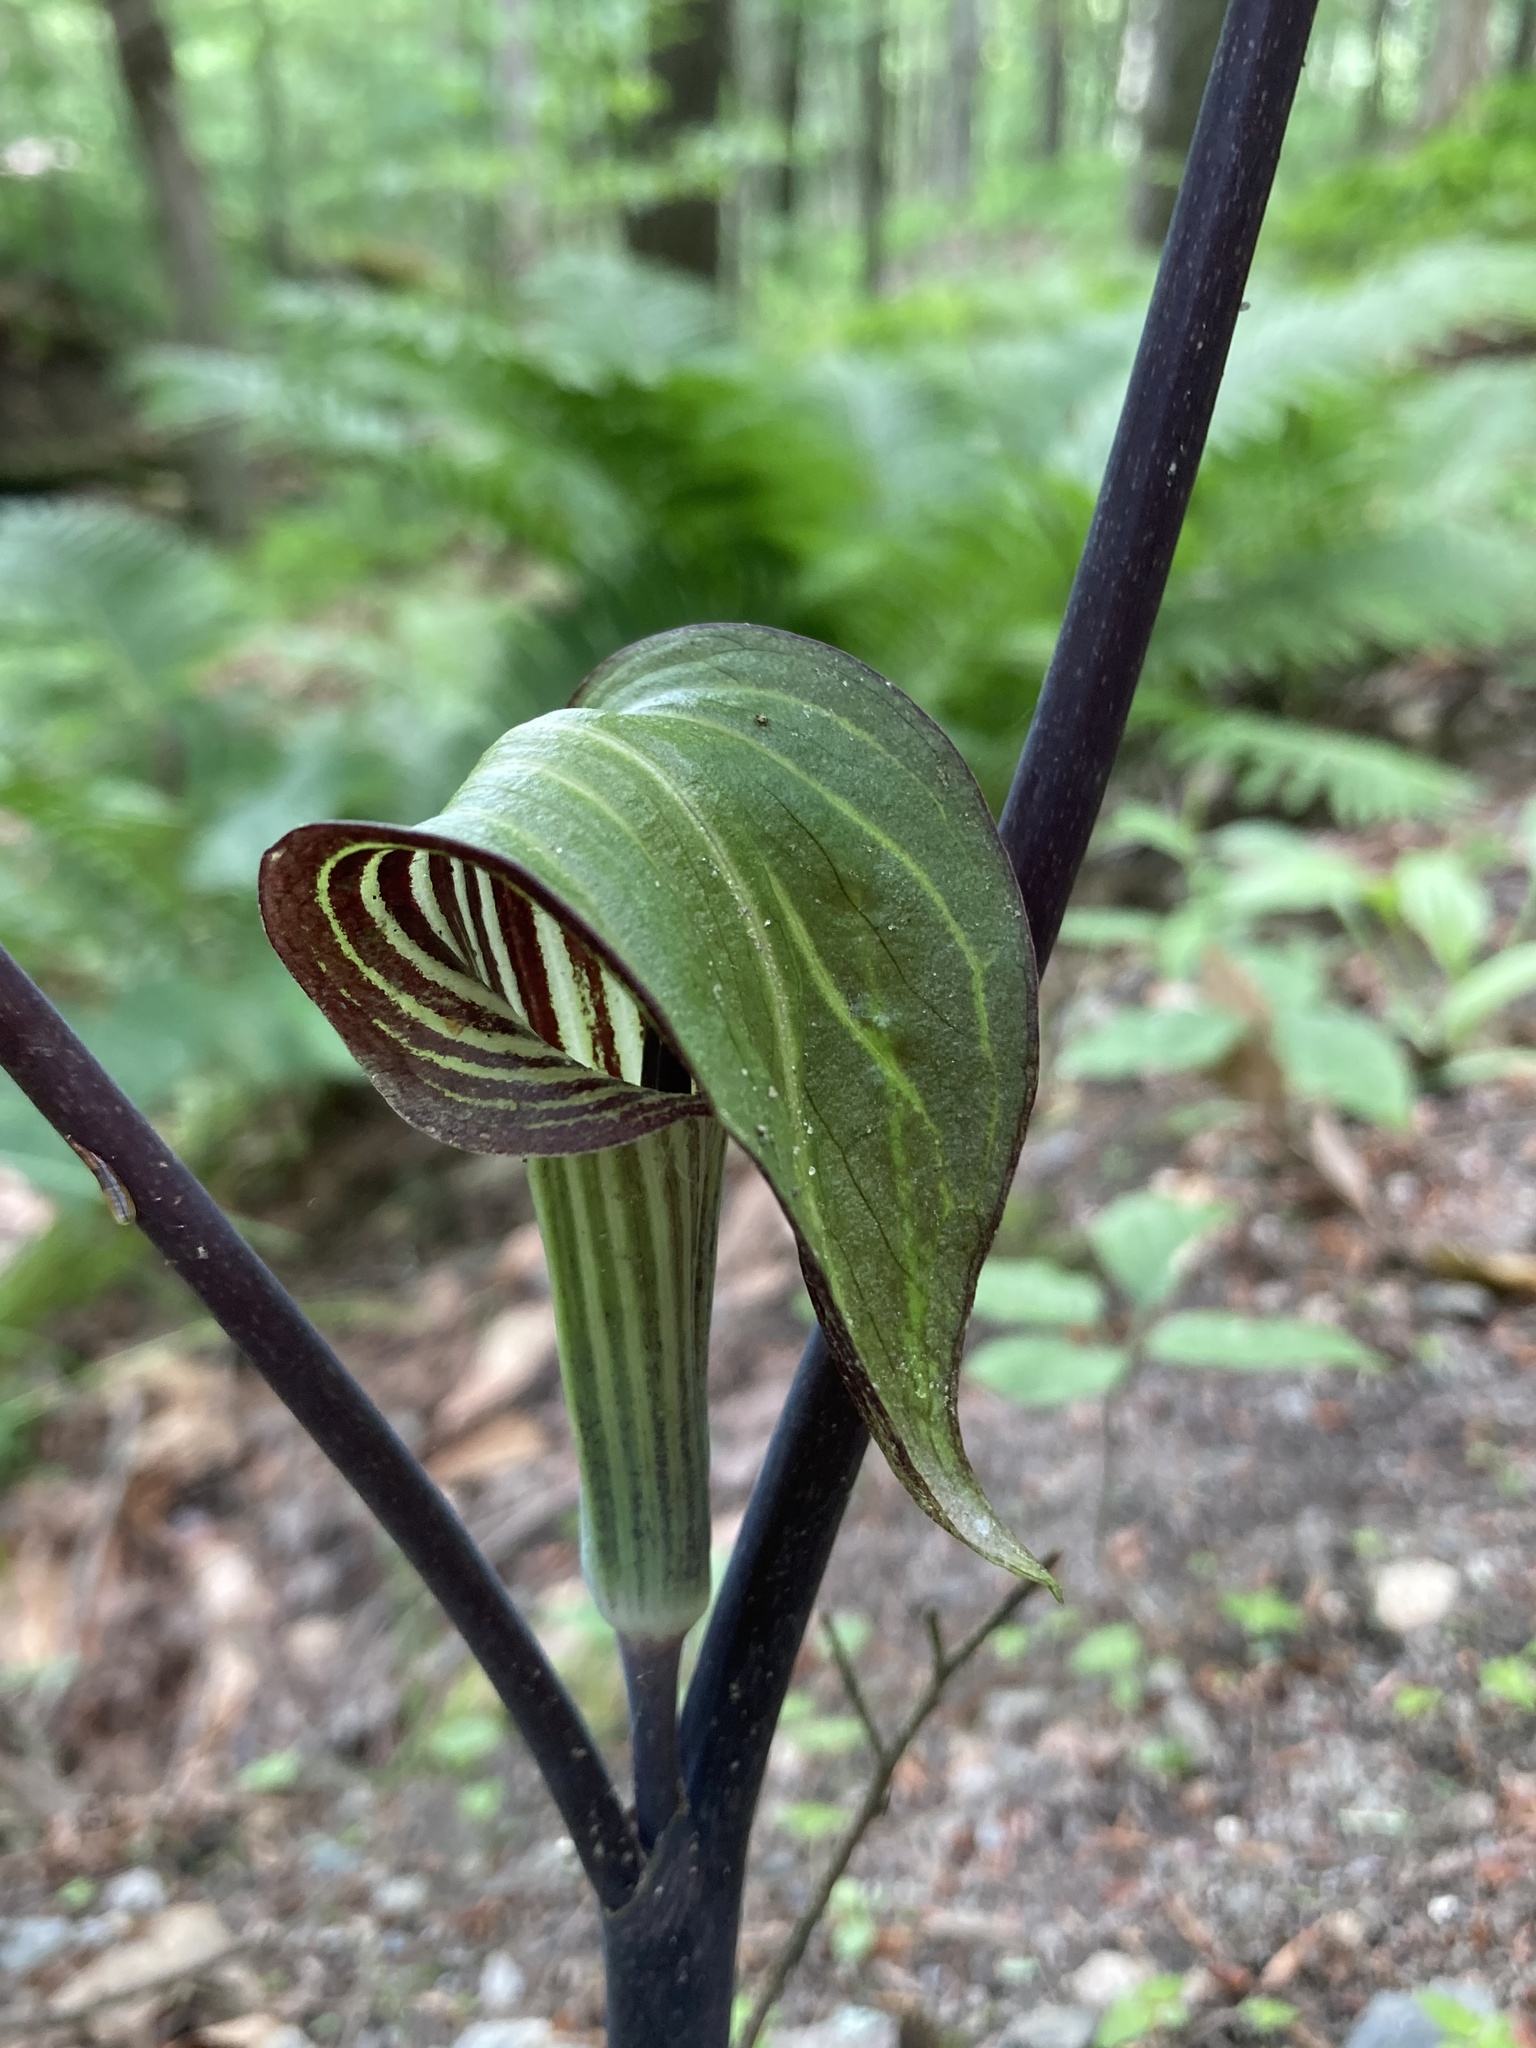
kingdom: Plantae
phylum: Tracheophyta
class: Liliopsida
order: Alismatales
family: Araceae
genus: Arisaema
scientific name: Arisaema triphyllum
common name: Jack-in-the-pulpit
